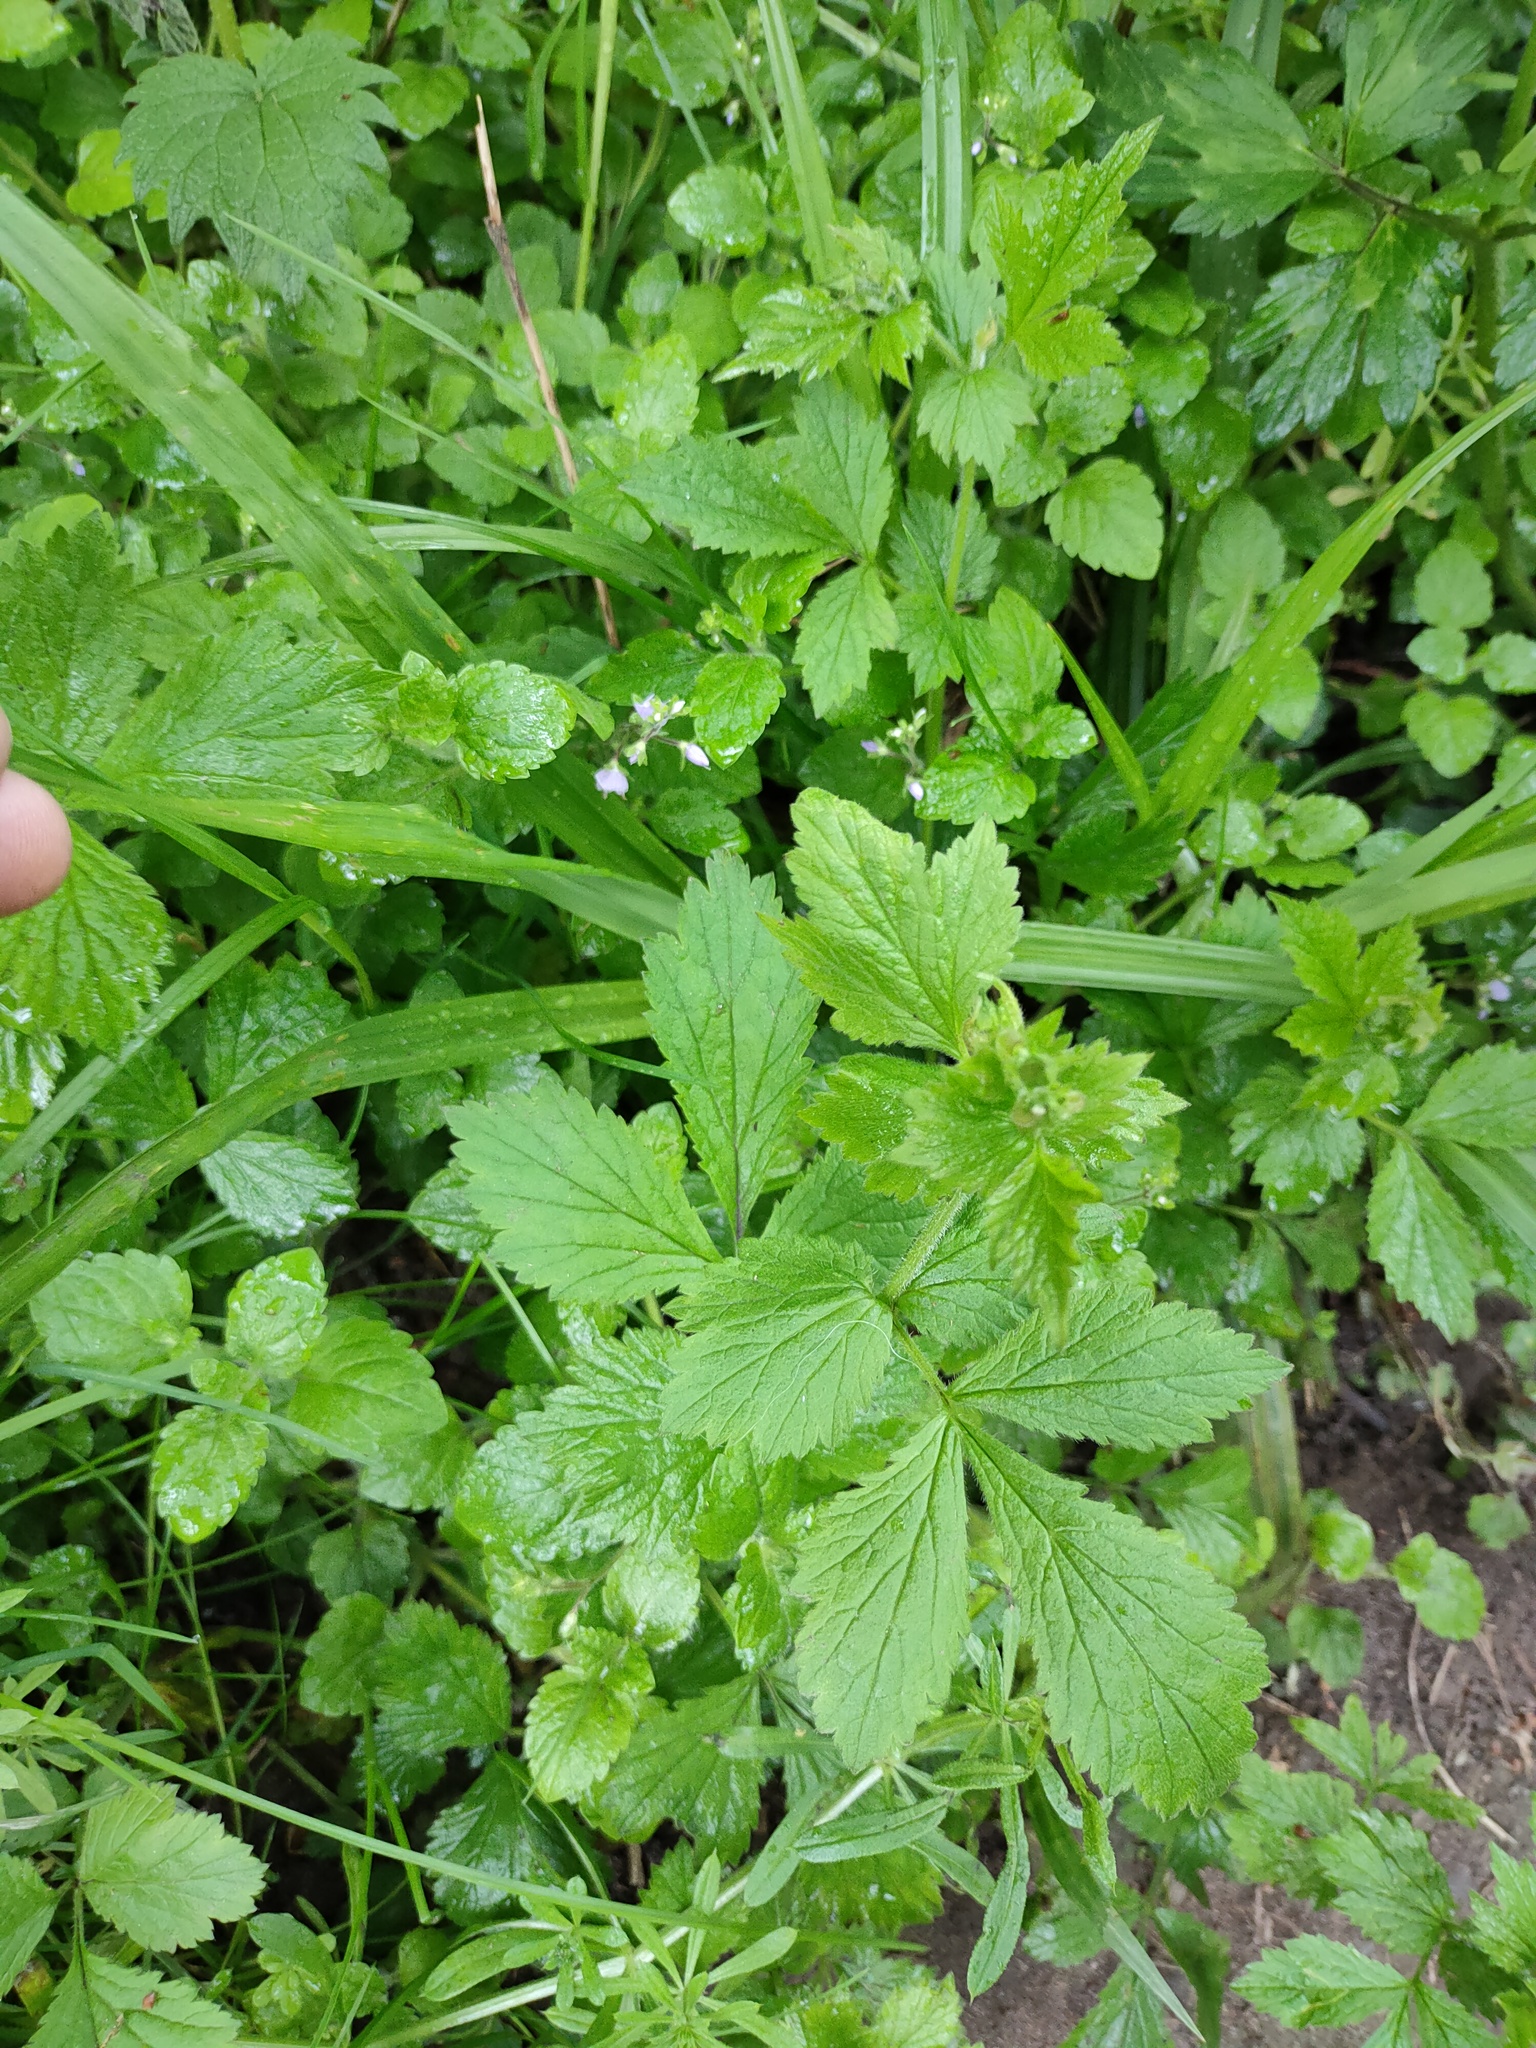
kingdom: Plantae
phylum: Tracheophyta
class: Magnoliopsida
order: Rosales
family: Rosaceae
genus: Geum
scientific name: Geum urbanum
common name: Wood avens
